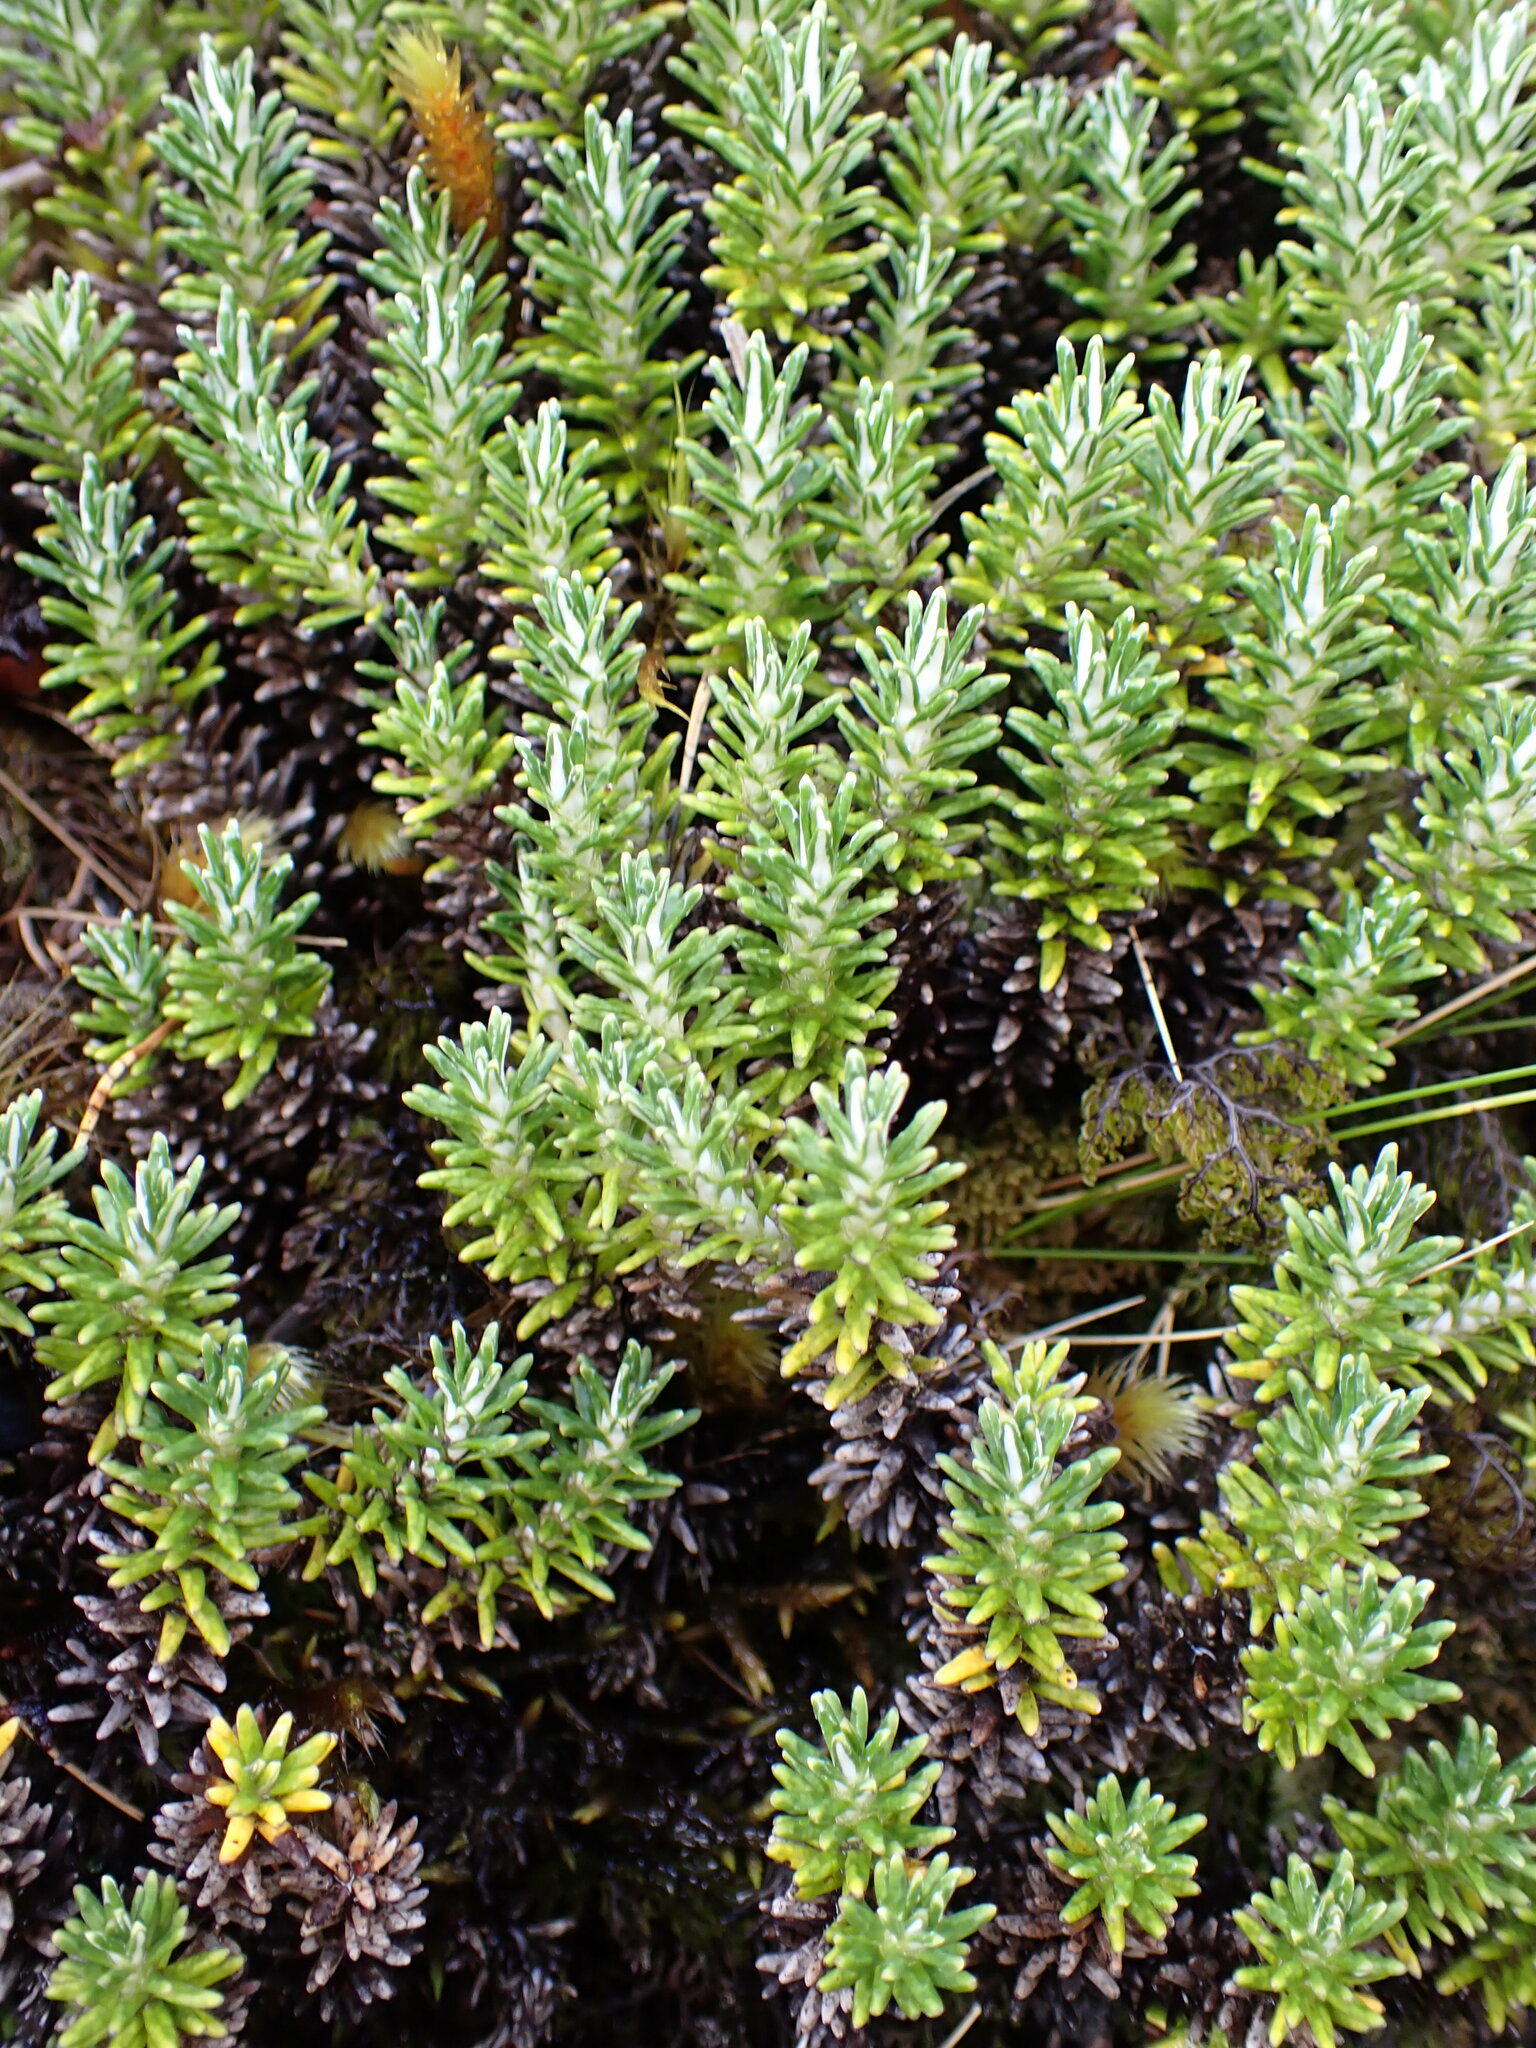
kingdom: Plantae
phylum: Tracheophyta
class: Magnoliopsida
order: Asterales
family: Asteraceae
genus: Celmisia
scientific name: Celmisia ramulosa
